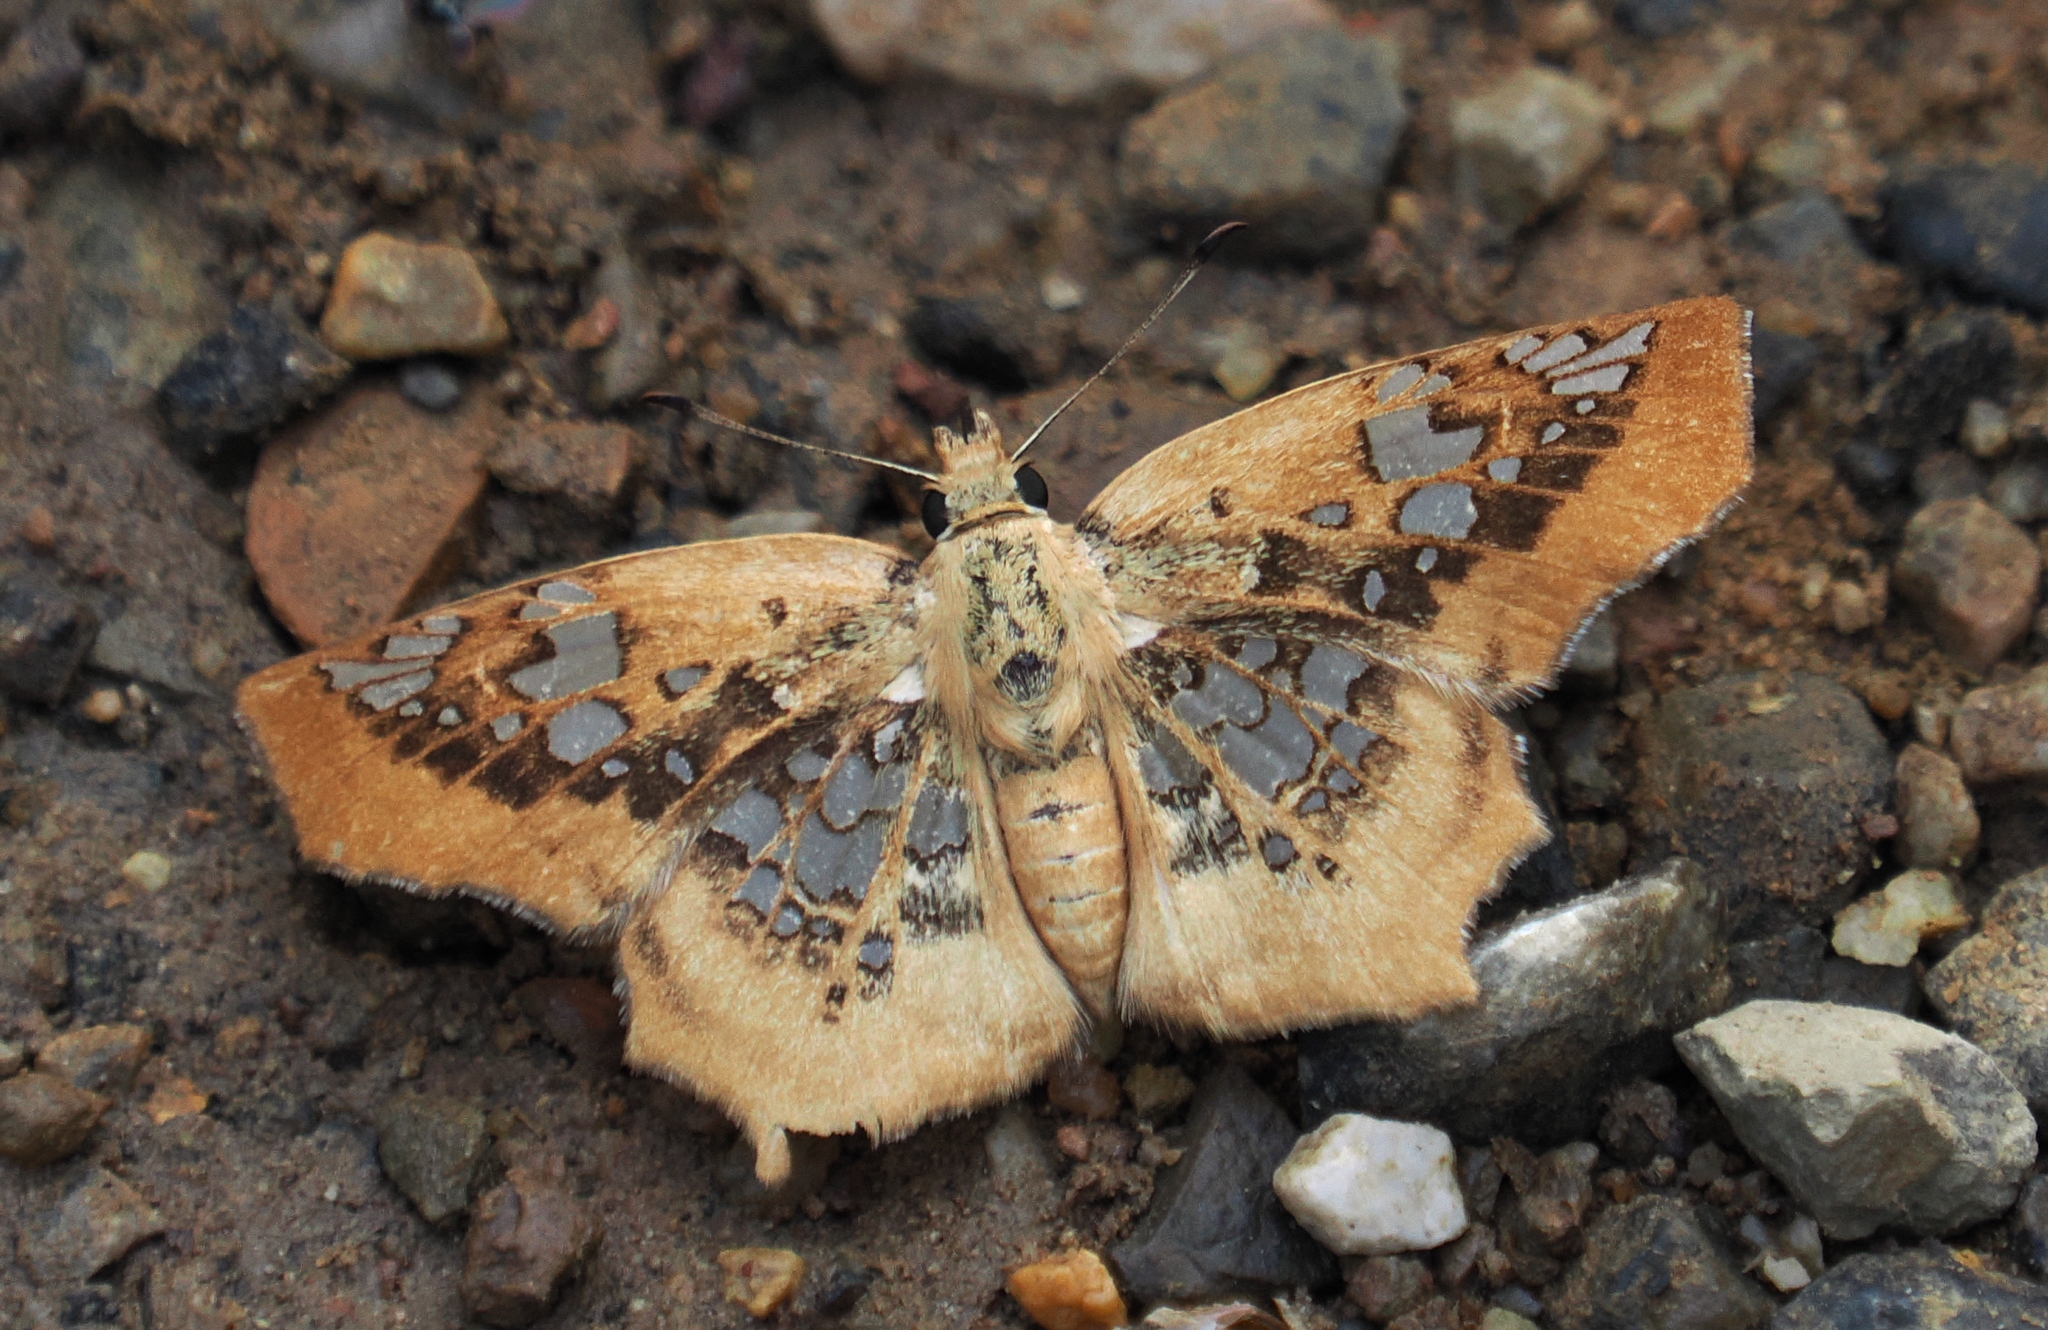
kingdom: Animalia
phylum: Arthropoda
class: Insecta
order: Lepidoptera
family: Hesperiidae
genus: Ctenoptilum
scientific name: Ctenoptilum vasava
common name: Tawny angle
